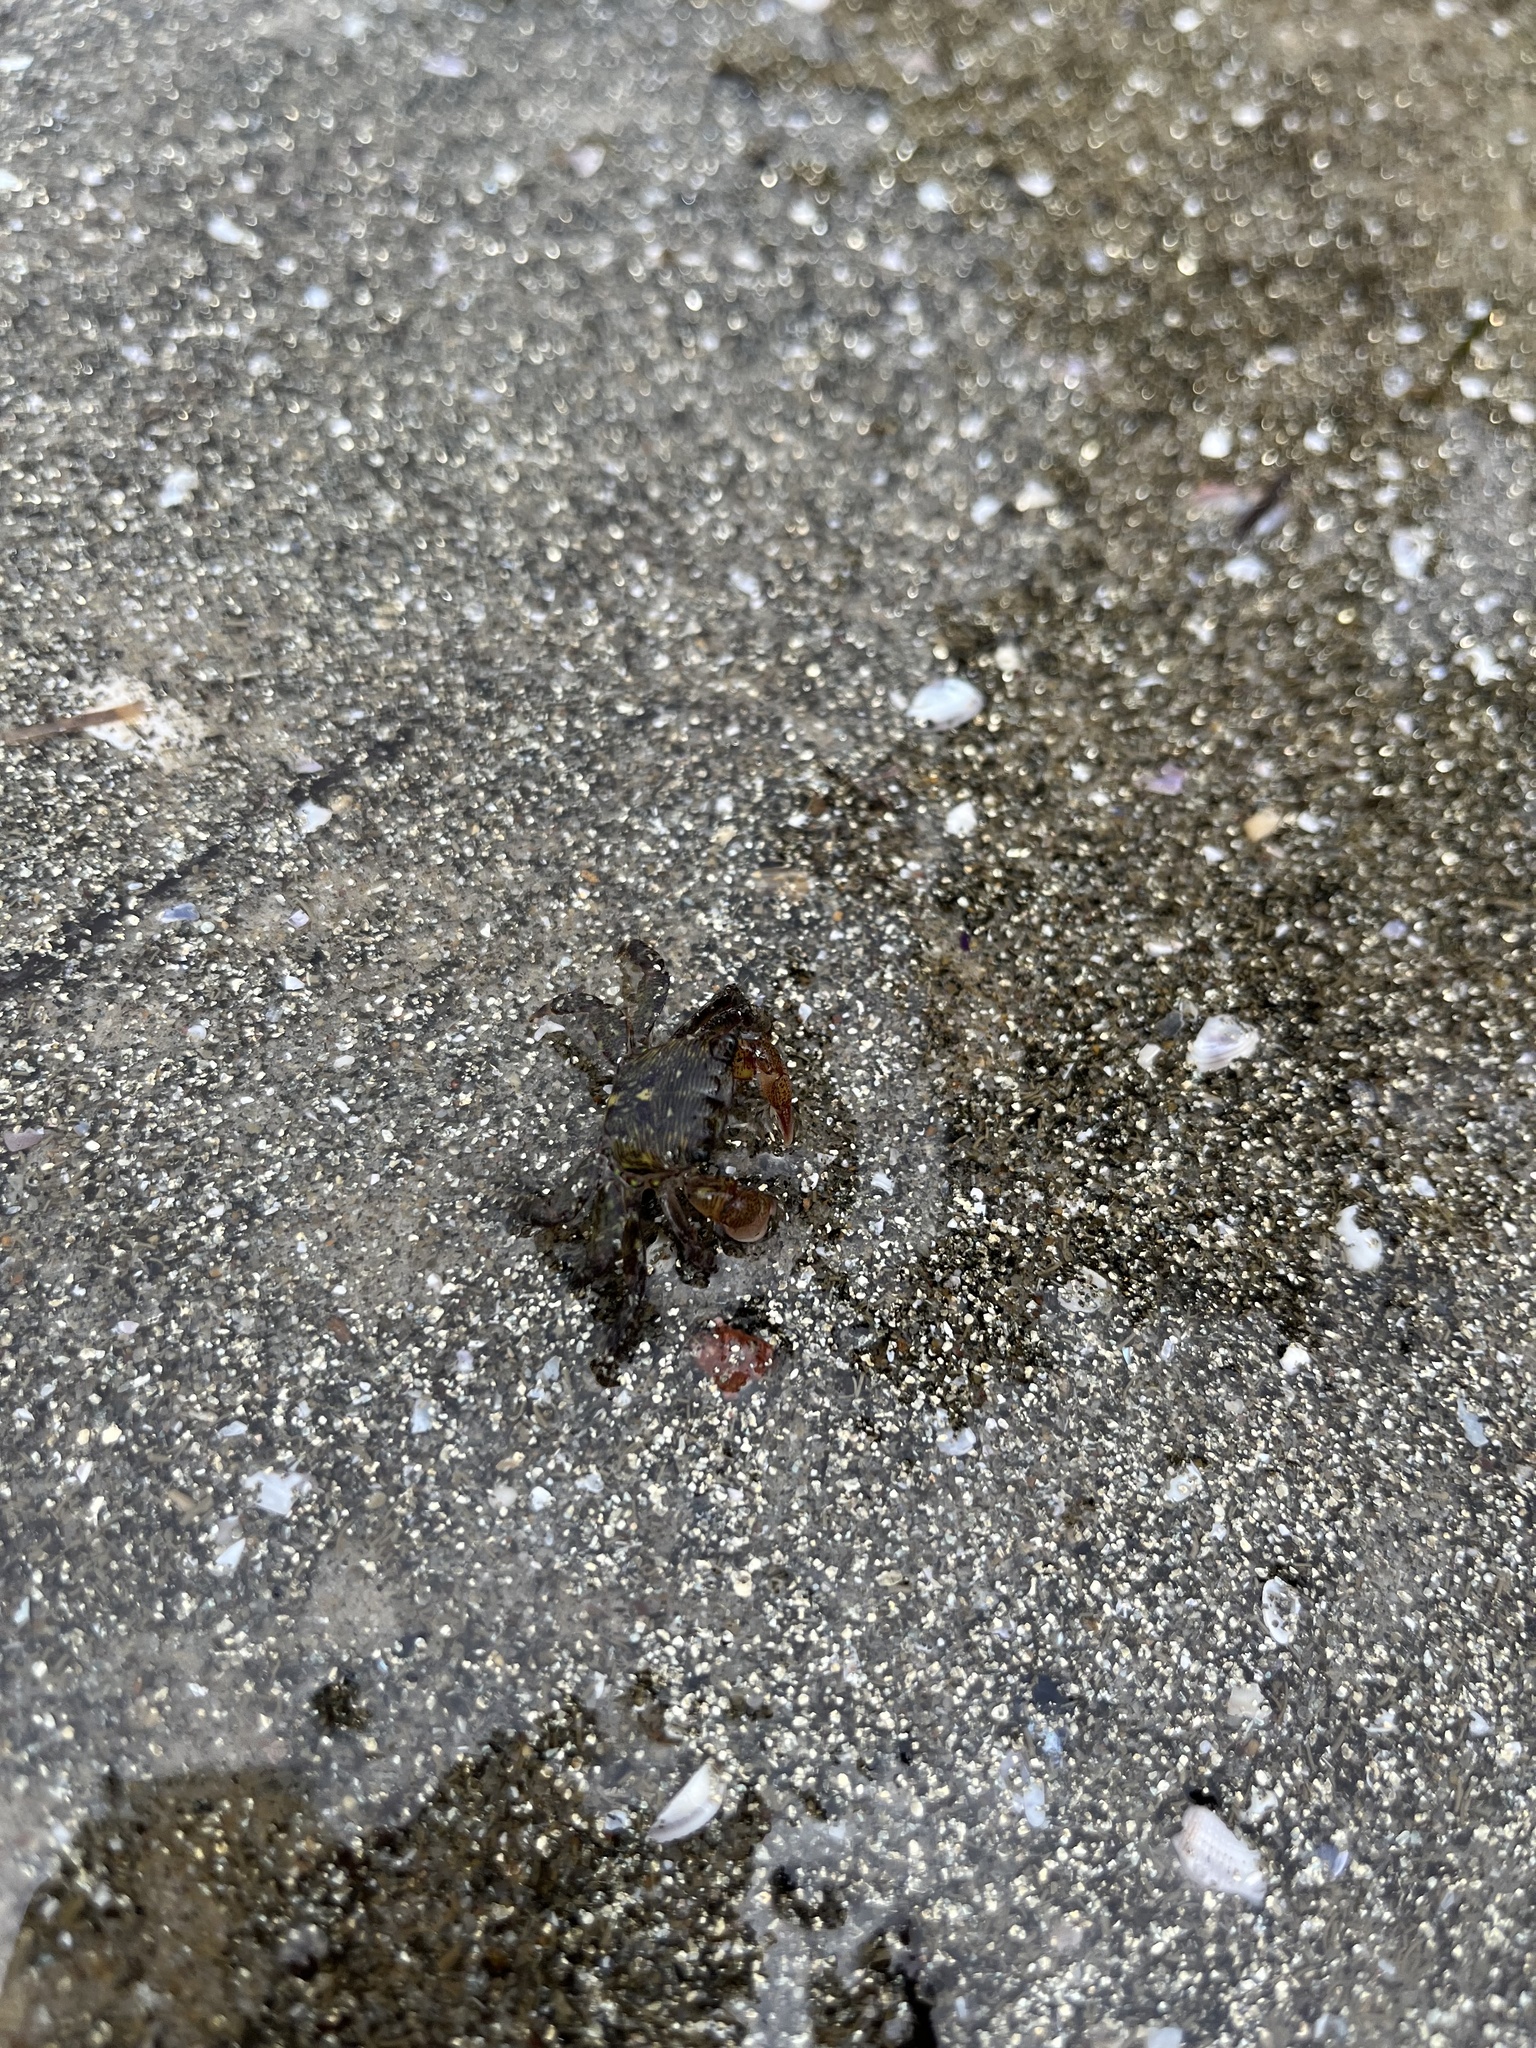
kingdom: Animalia
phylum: Arthropoda
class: Malacostraca
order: Decapoda
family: Grapsidae
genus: Pachygrapsus
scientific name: Pachygrapsus crassipes
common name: Striped shore crab
